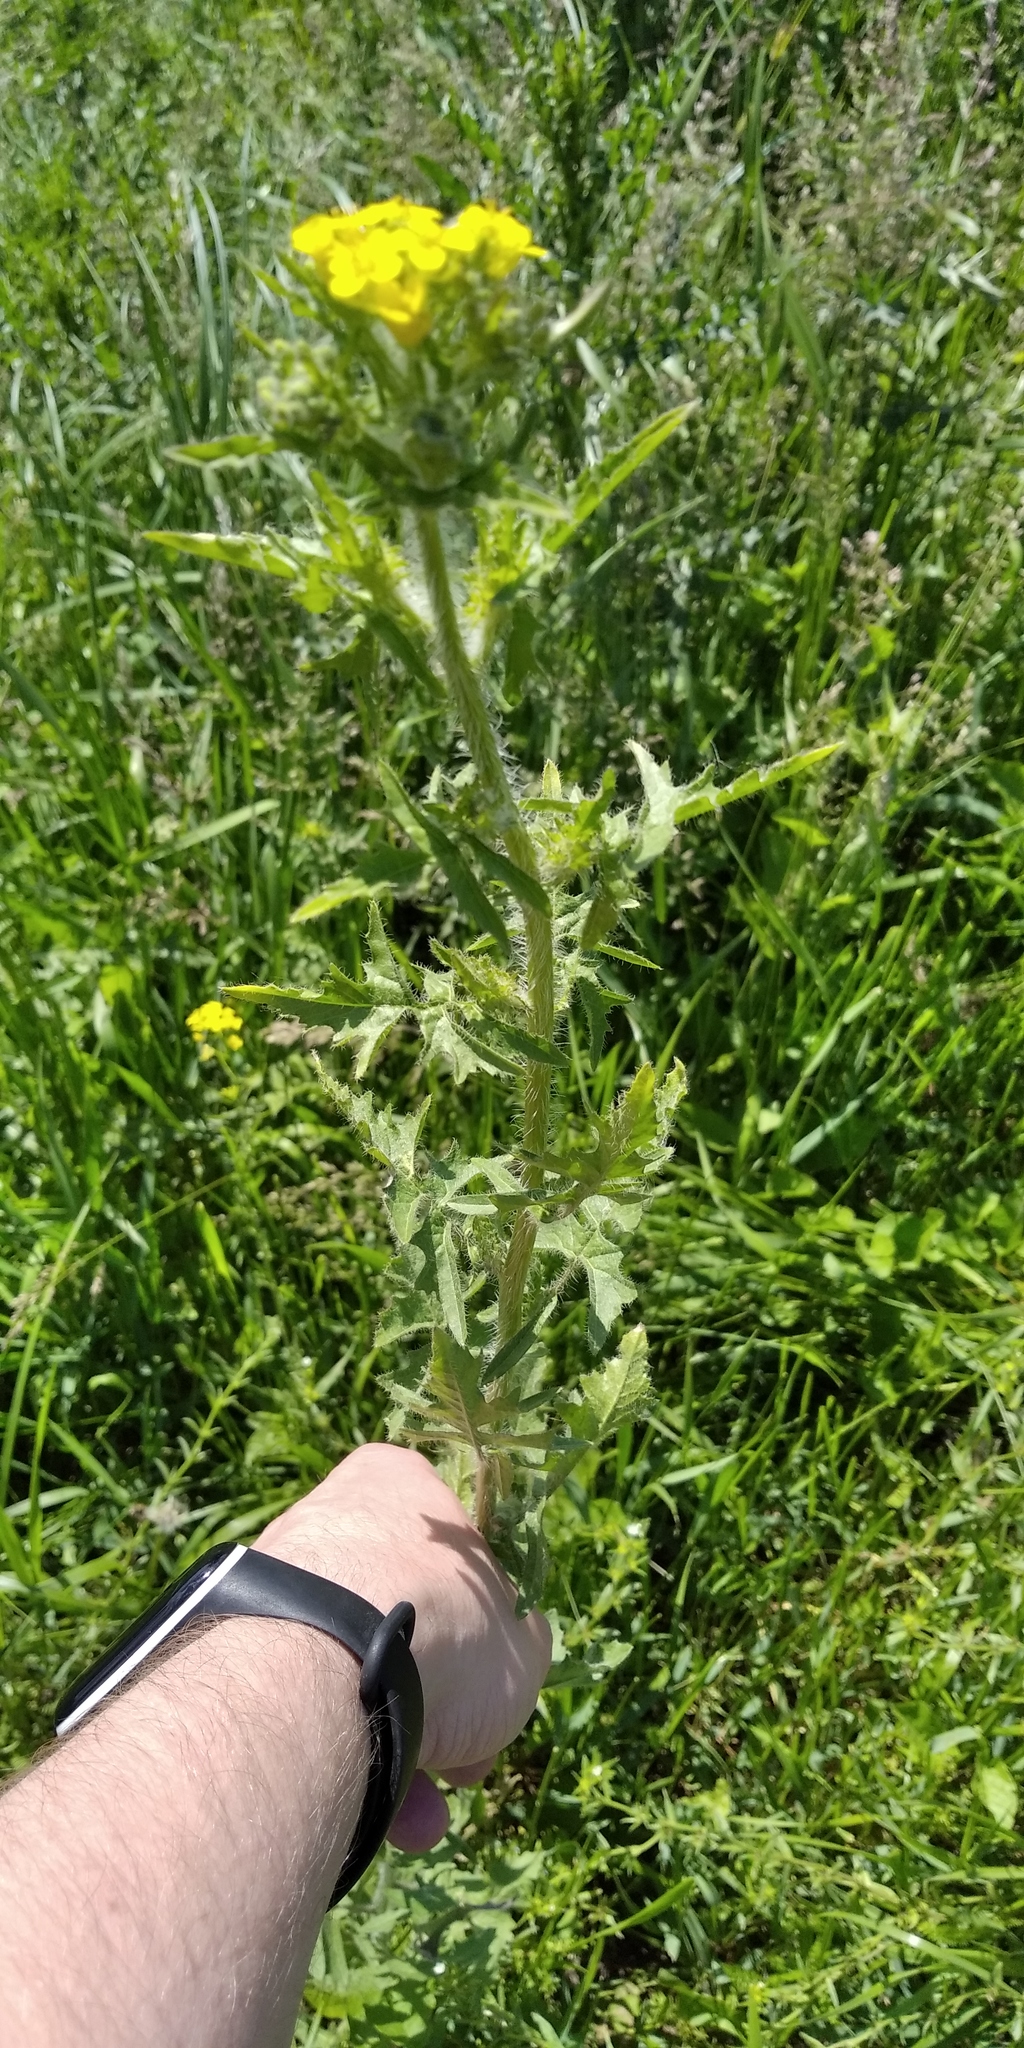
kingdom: Plantae
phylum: Tracheophyta
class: Magnoliopsida
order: Brassicales
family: Brassicaceae
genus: Sisymbrium
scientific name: Sisymbrium loeselii
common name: False london-rocket
